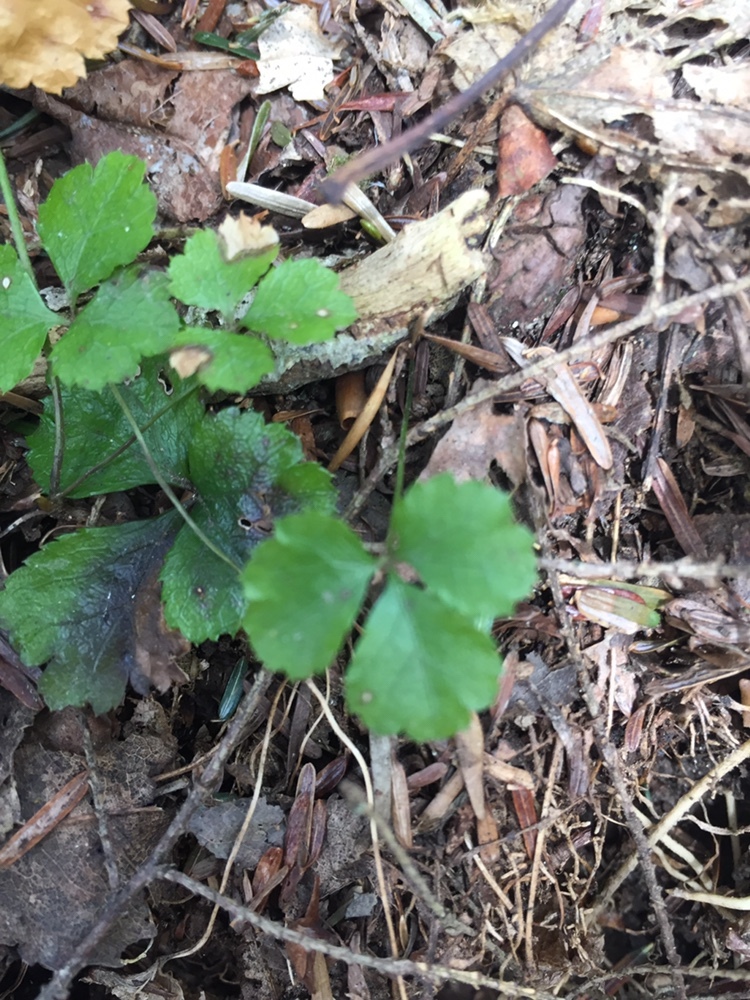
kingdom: Plantae
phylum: Tracheophyta
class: Magnoliopsida
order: Ranunculales
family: Ranunculaceae
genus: Coptis
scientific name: Coptis trifolia
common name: Canker-root
